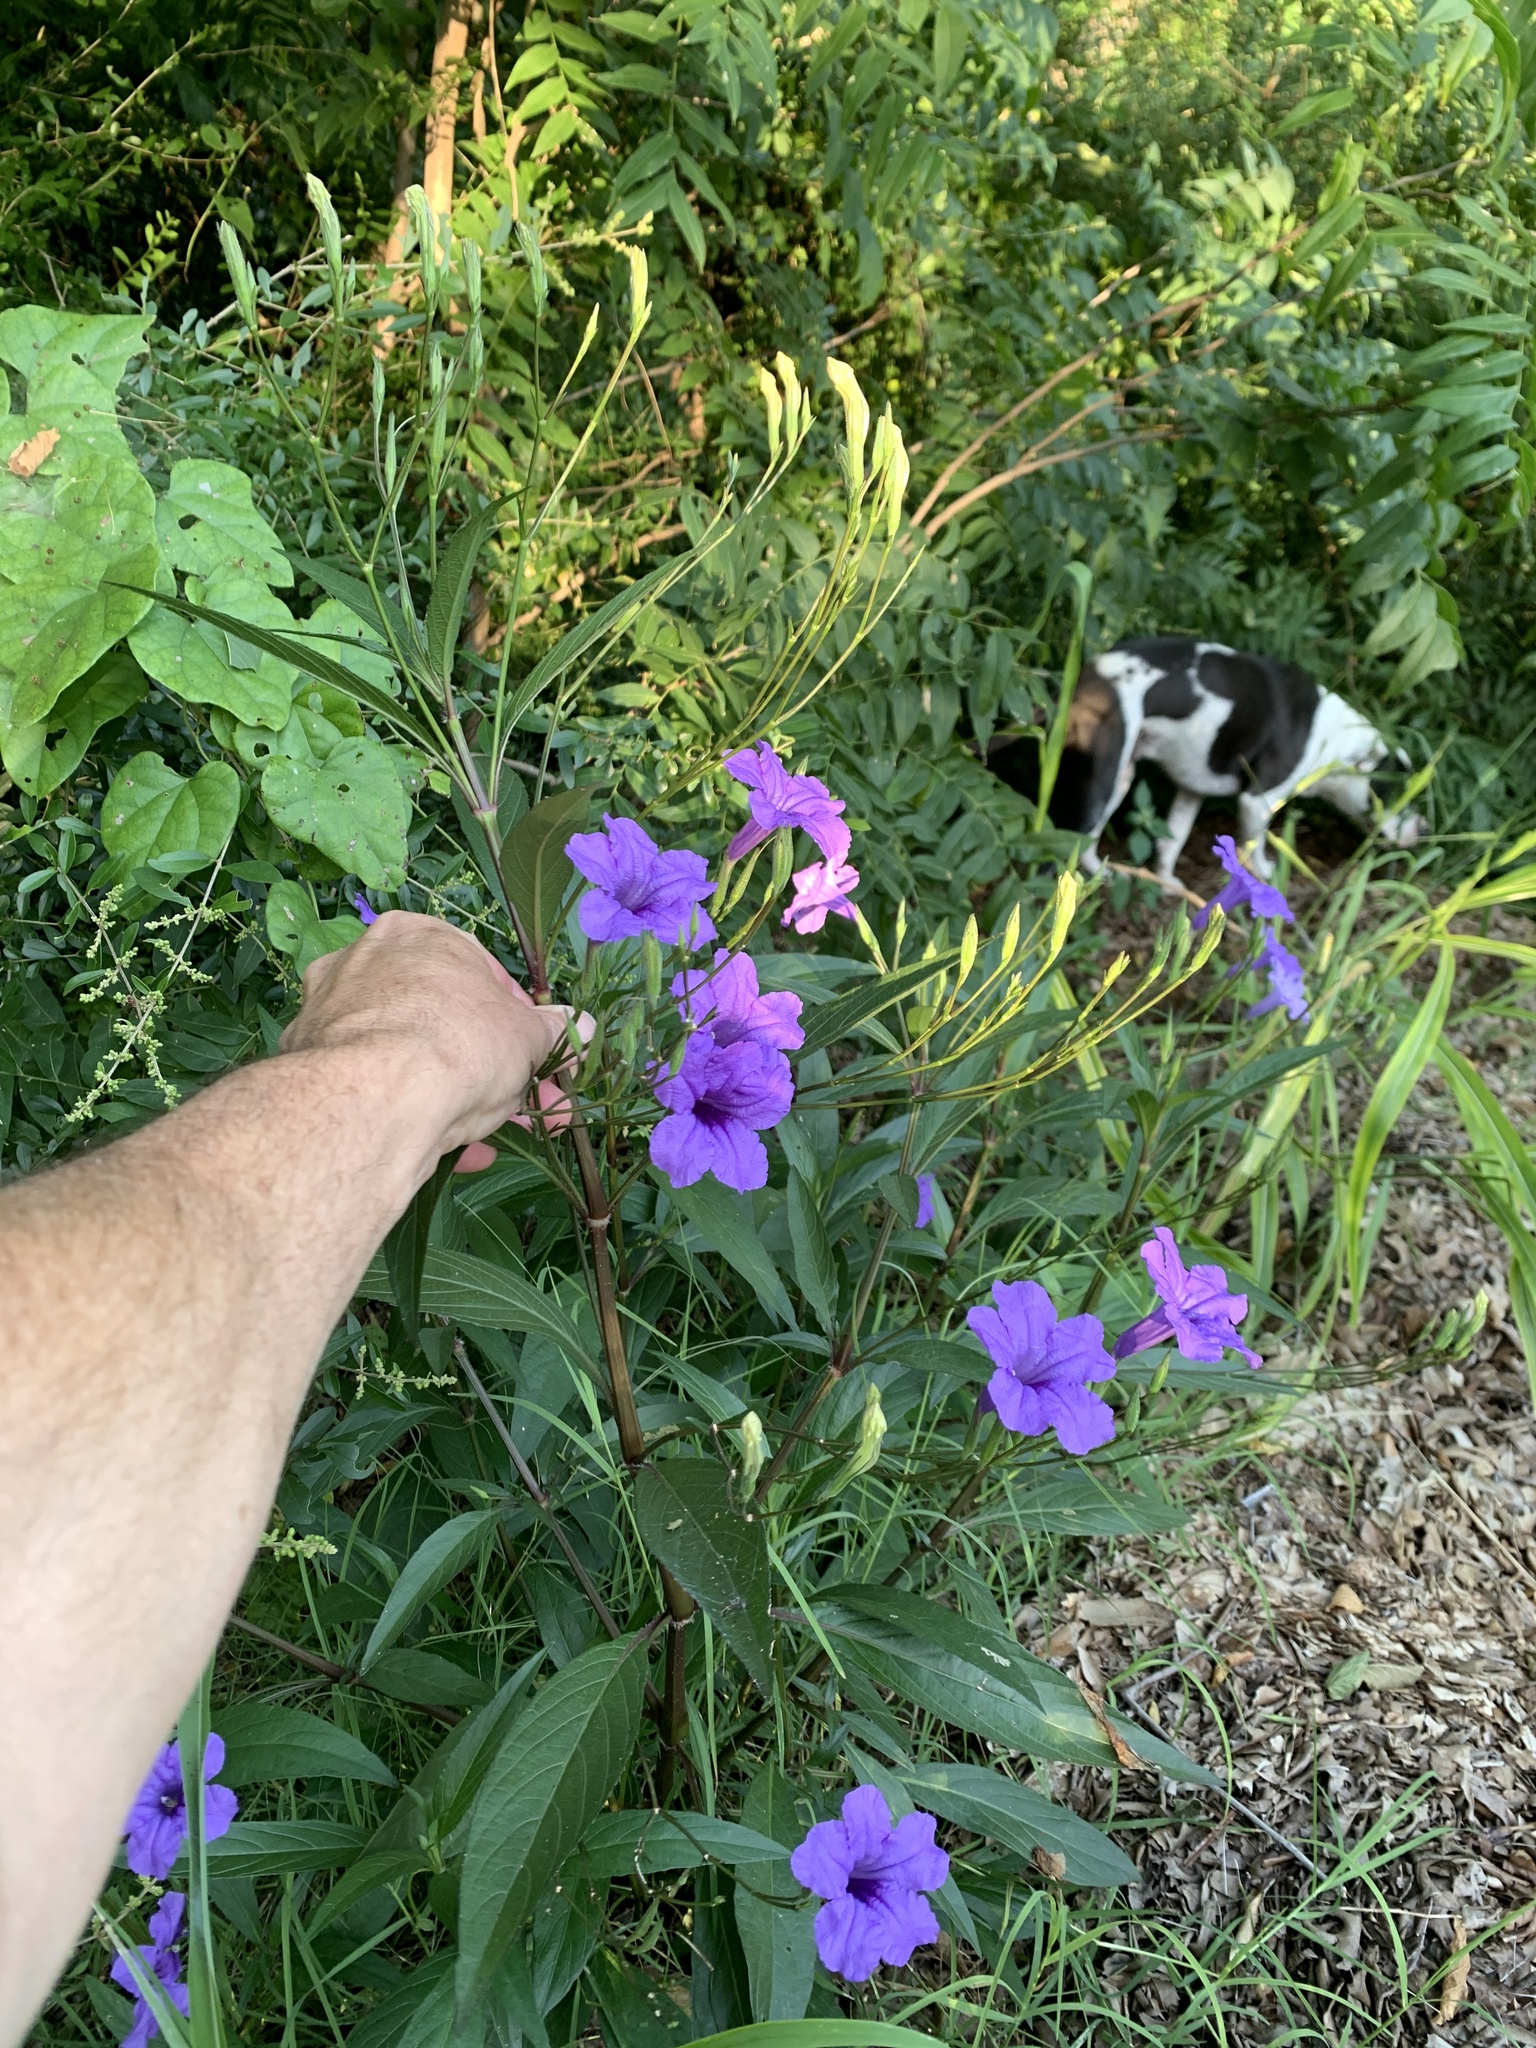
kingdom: Plantae
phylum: Tracheophyta
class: Magnoliopsida
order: Lamiales
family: Acanthaceae
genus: Ruellia
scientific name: Ruellia simplex
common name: Softseed wild petunia
